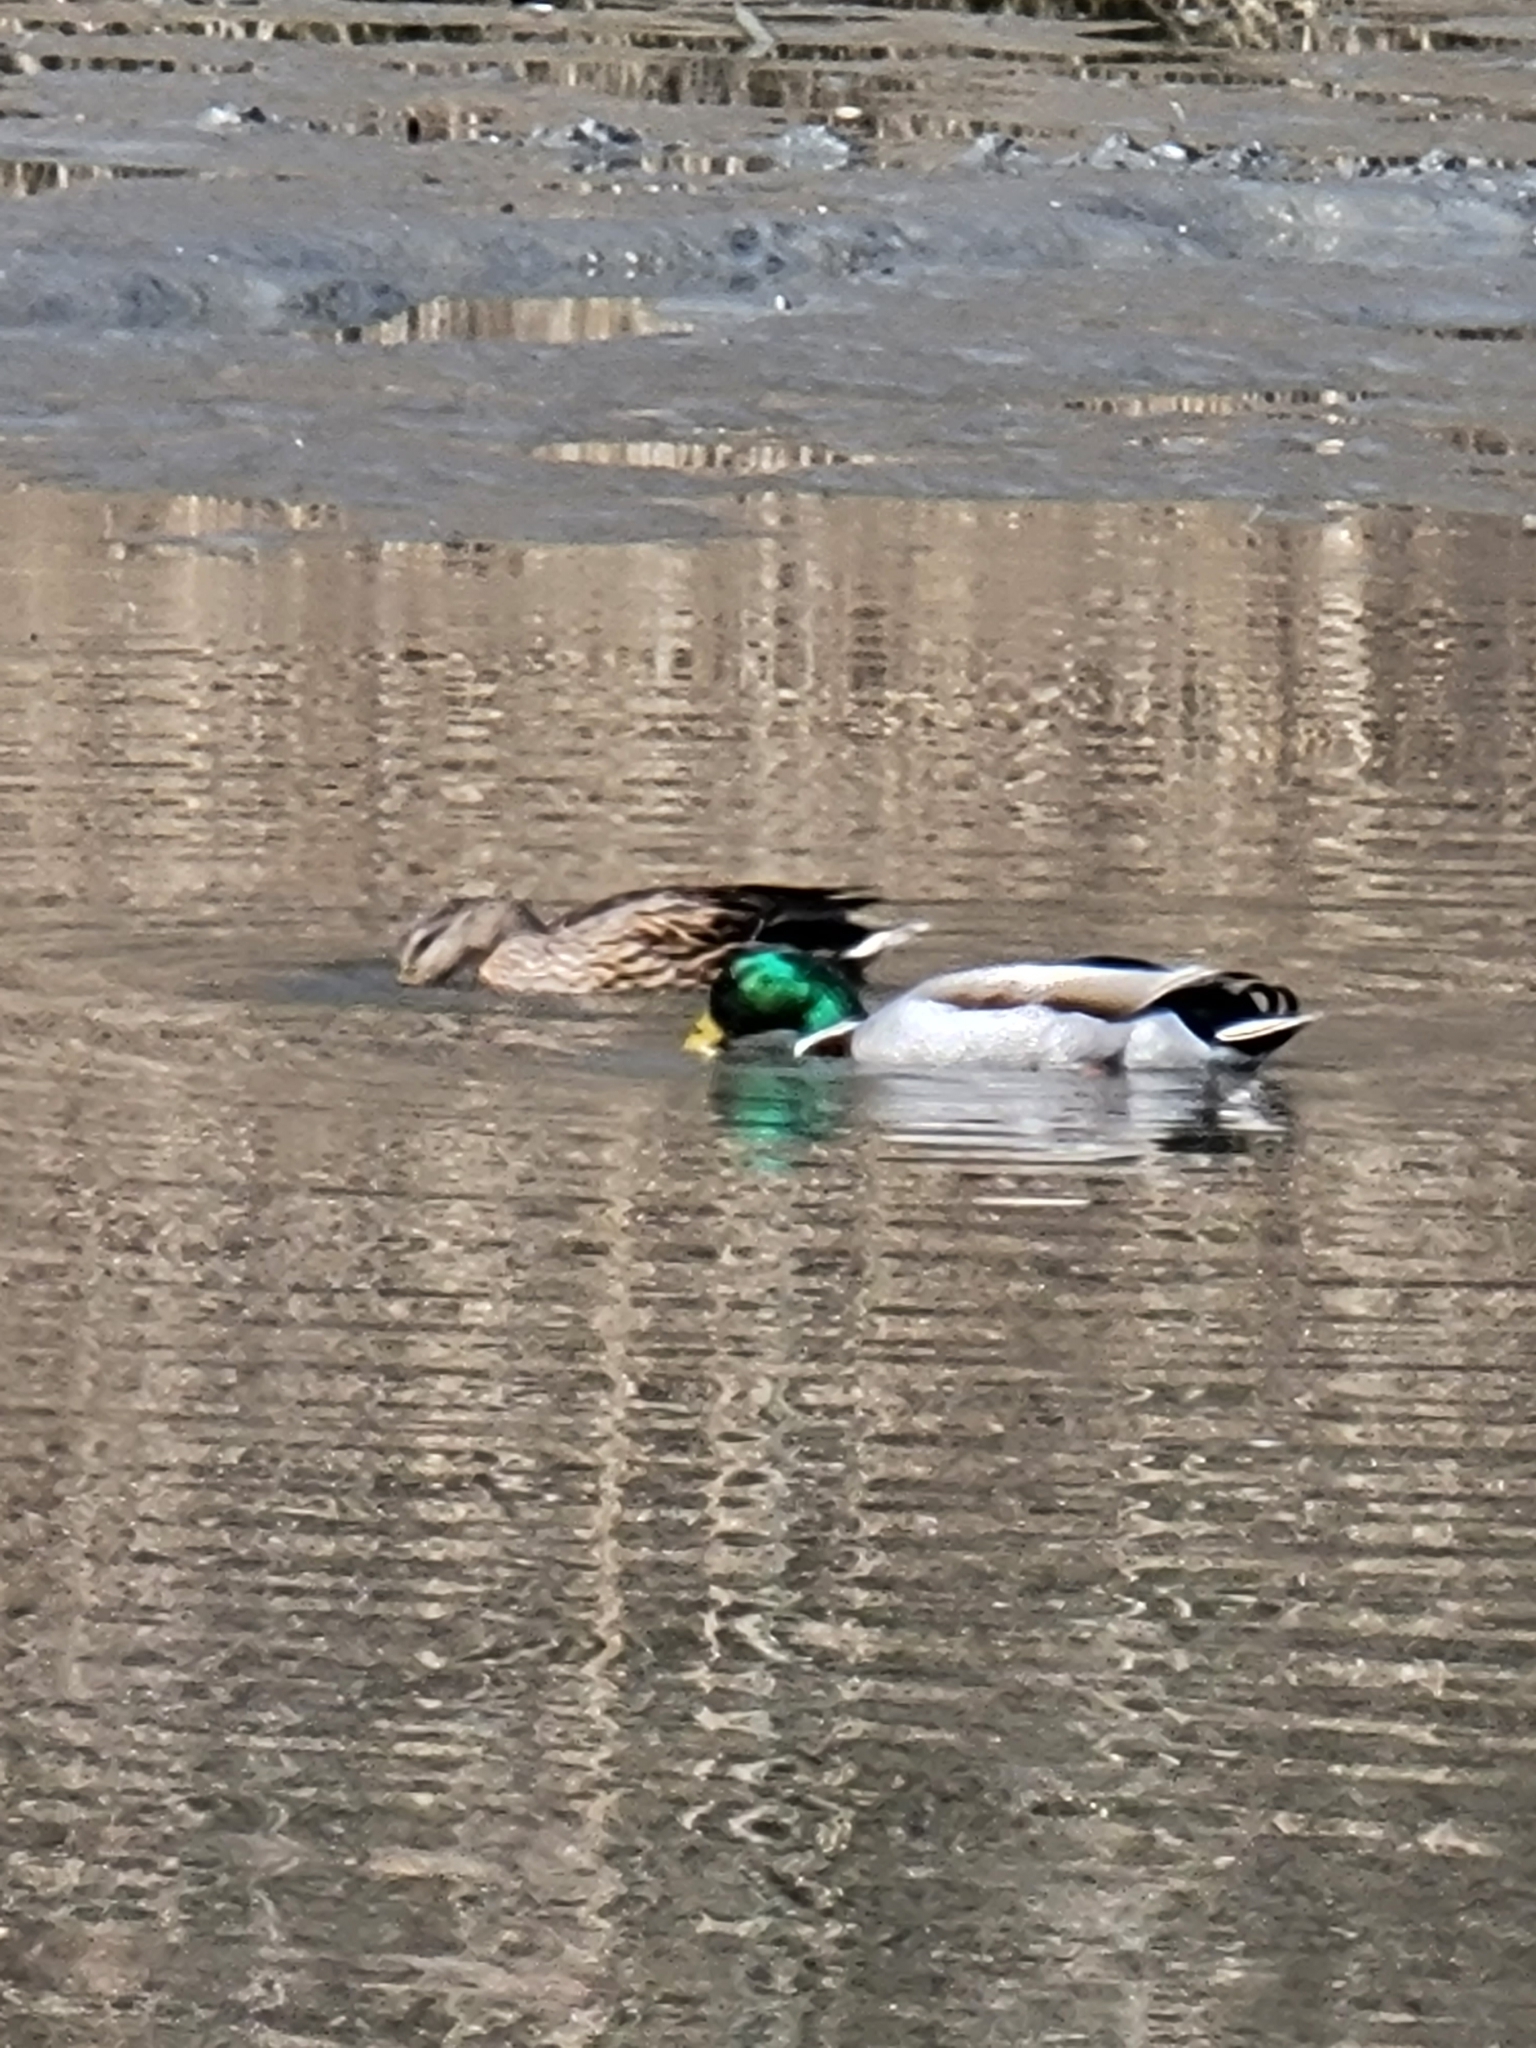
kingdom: Animalia
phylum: Chordata
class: Aves
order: Anseriformes
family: Anatidae
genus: Anas
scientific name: Anas platyrhynchos
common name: Mallard
